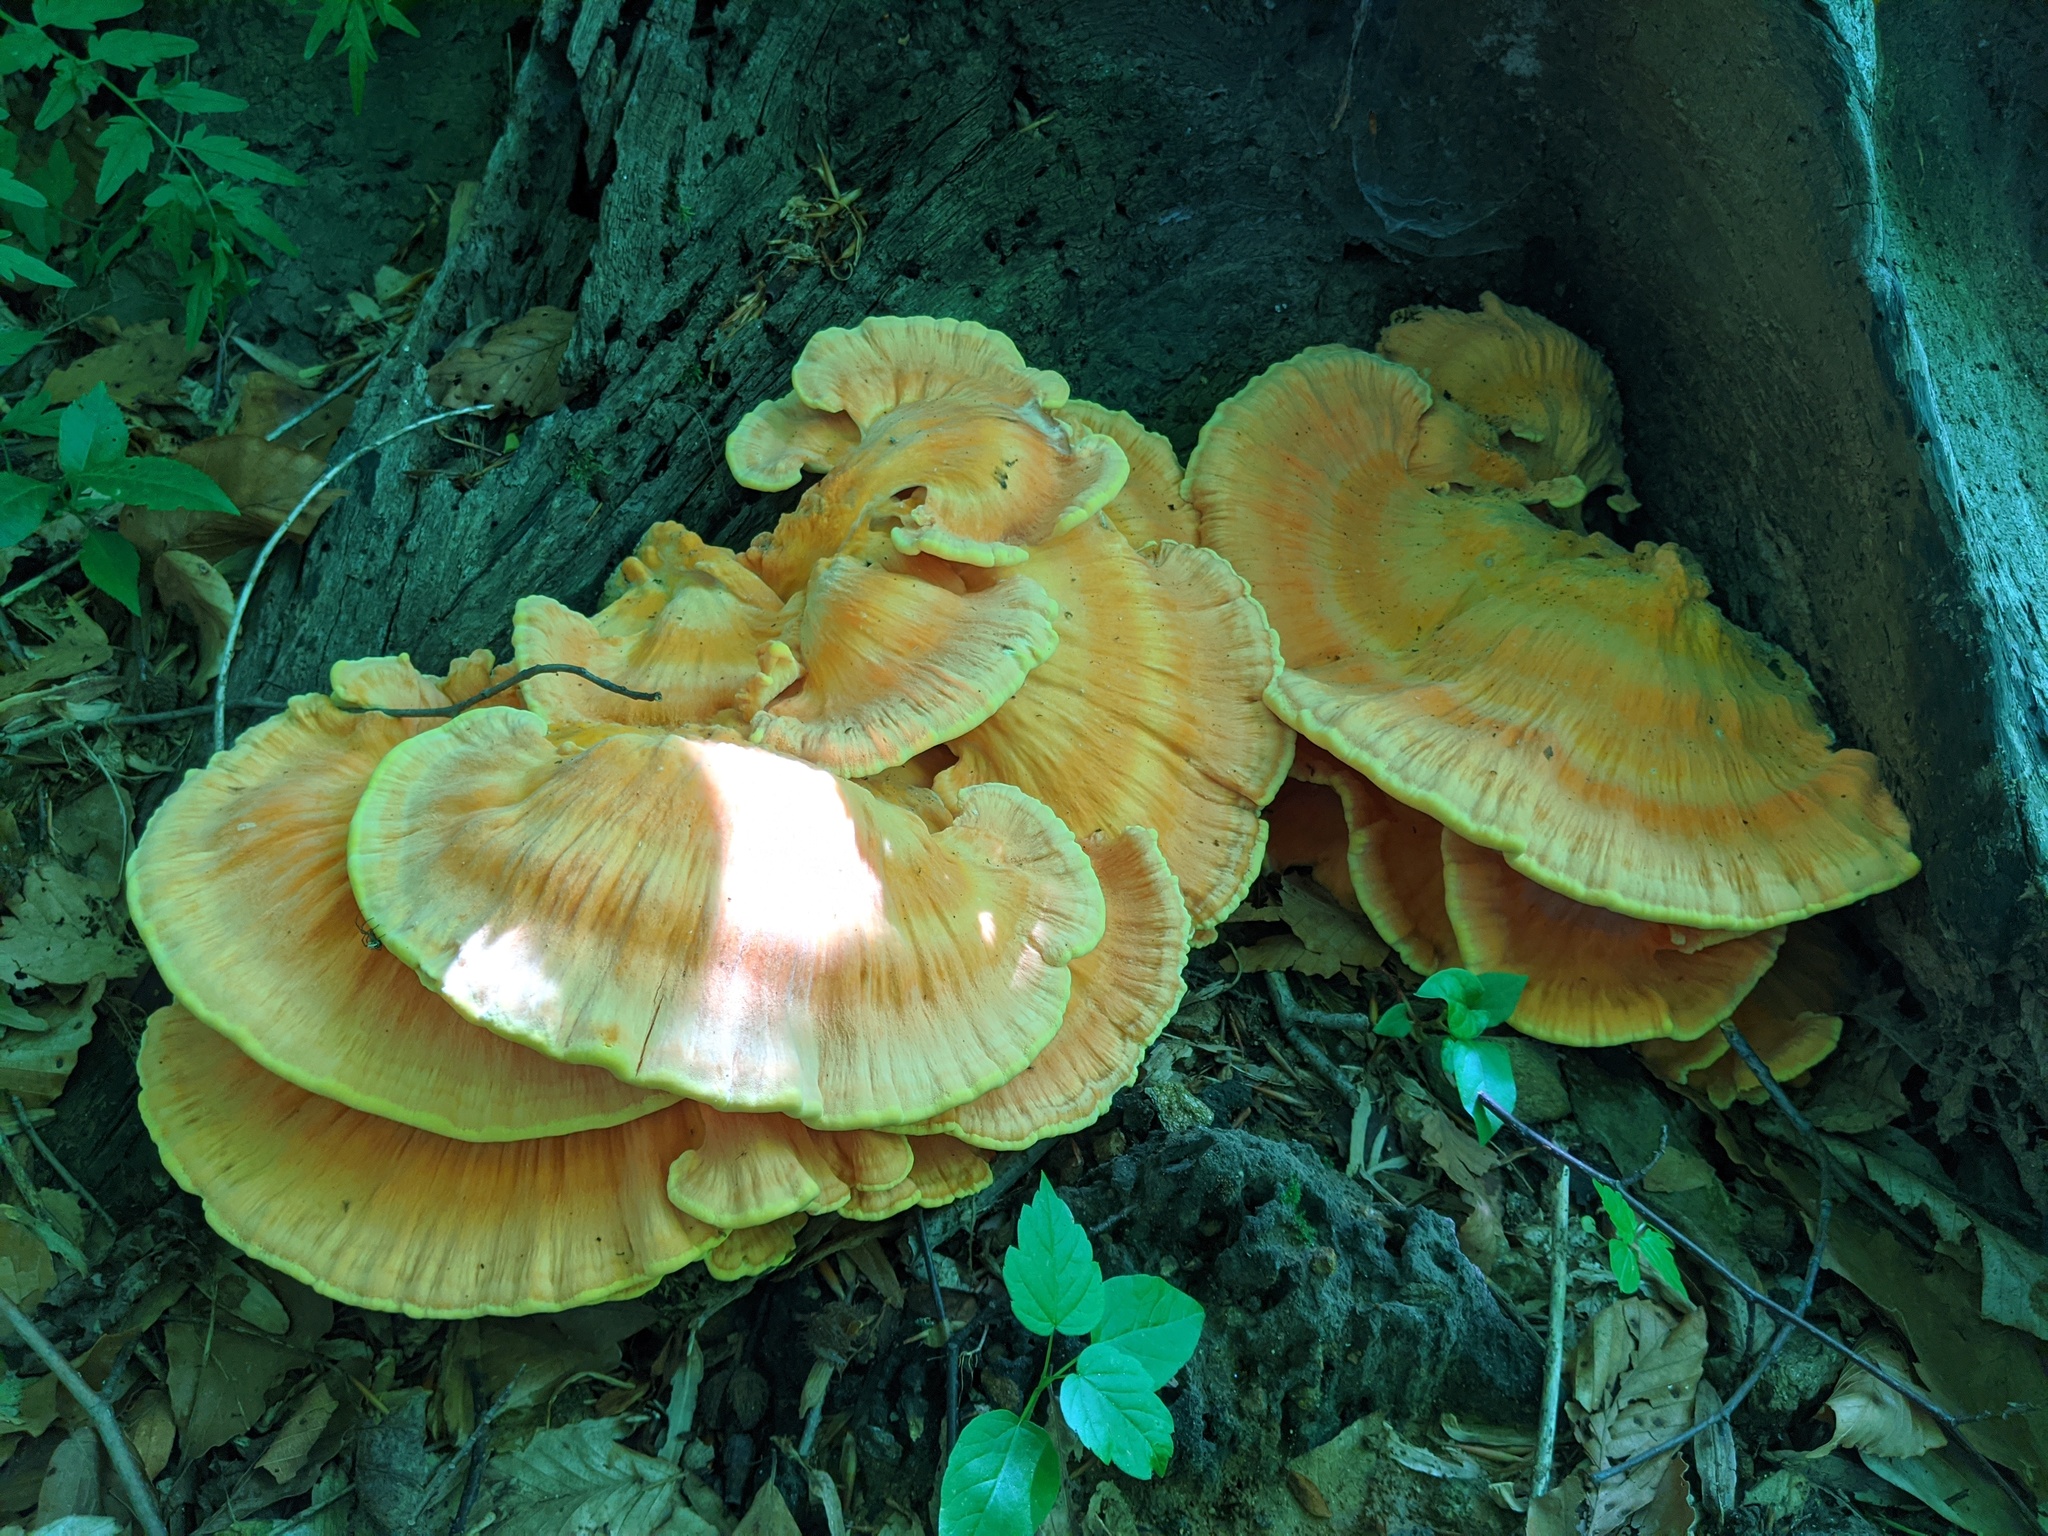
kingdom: Fungi
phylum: Basidiomycota
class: Agaricomycetes
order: Polyporales
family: Laetiporaceae
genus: Laetiporus
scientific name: Laetiporus sulphureus
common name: Chicken of the woods
